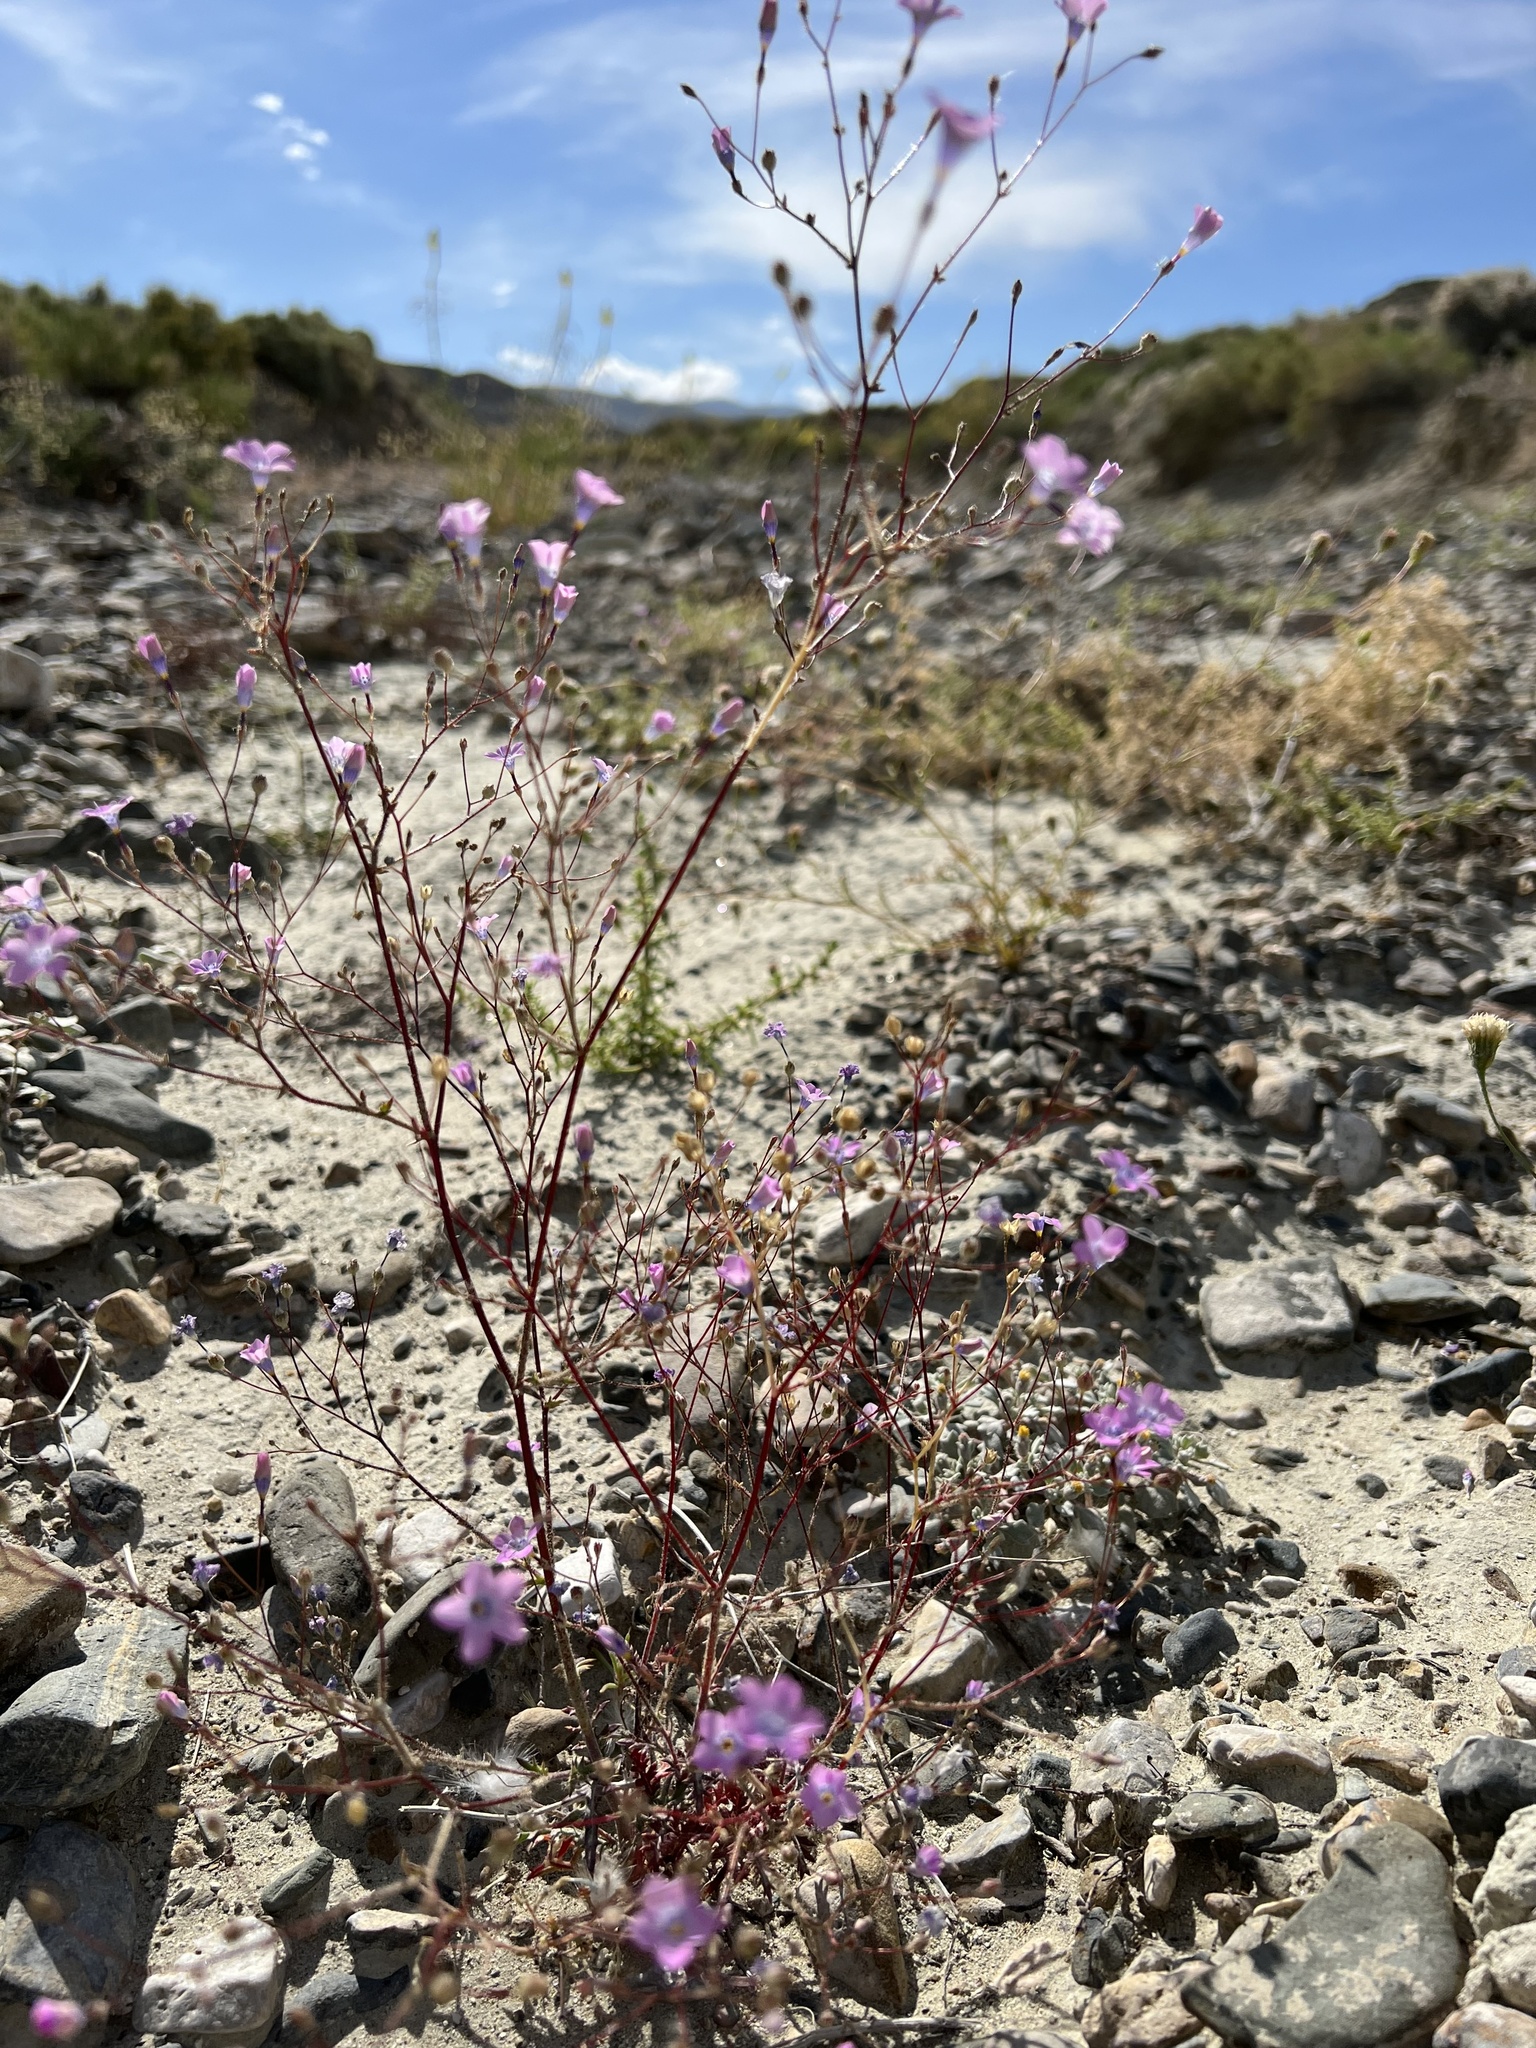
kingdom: Plantae
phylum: Tracheophyta
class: Magnoliopsida
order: Ericales
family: Polemoniaceae
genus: Gilia
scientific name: Gilia cana
